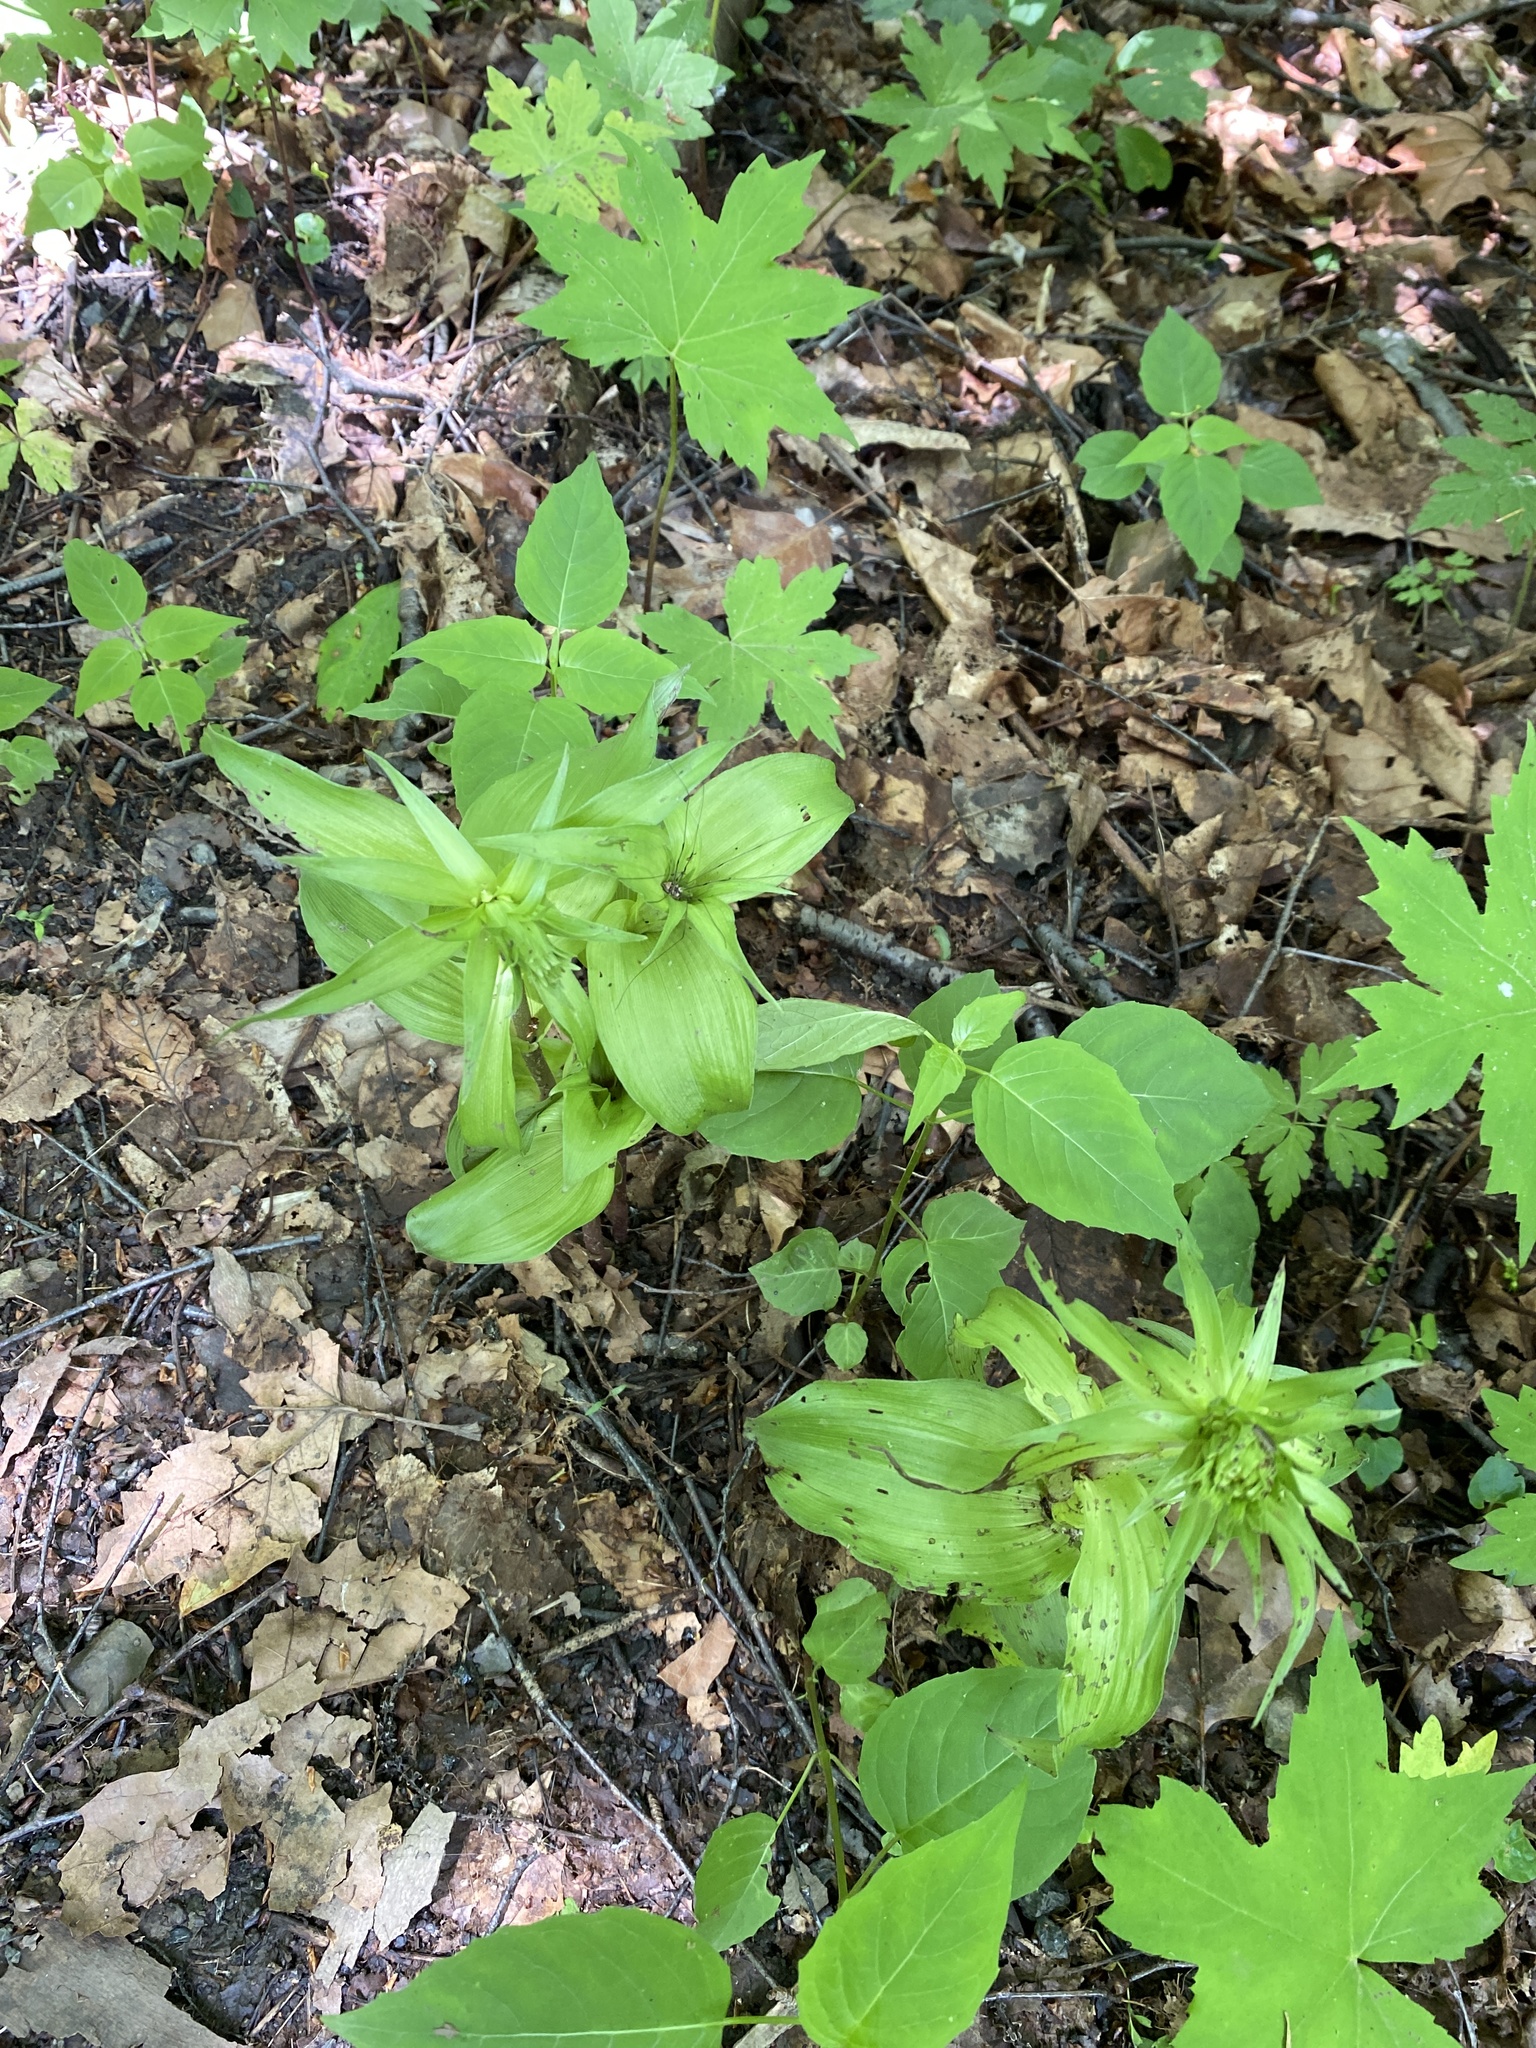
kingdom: Plantae
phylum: Tracheophyta
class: Liliopsida
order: Asparagales
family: Orchidaceae
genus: Epipactis
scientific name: Epipactis helleborine
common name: Broad-leaved helleborine
